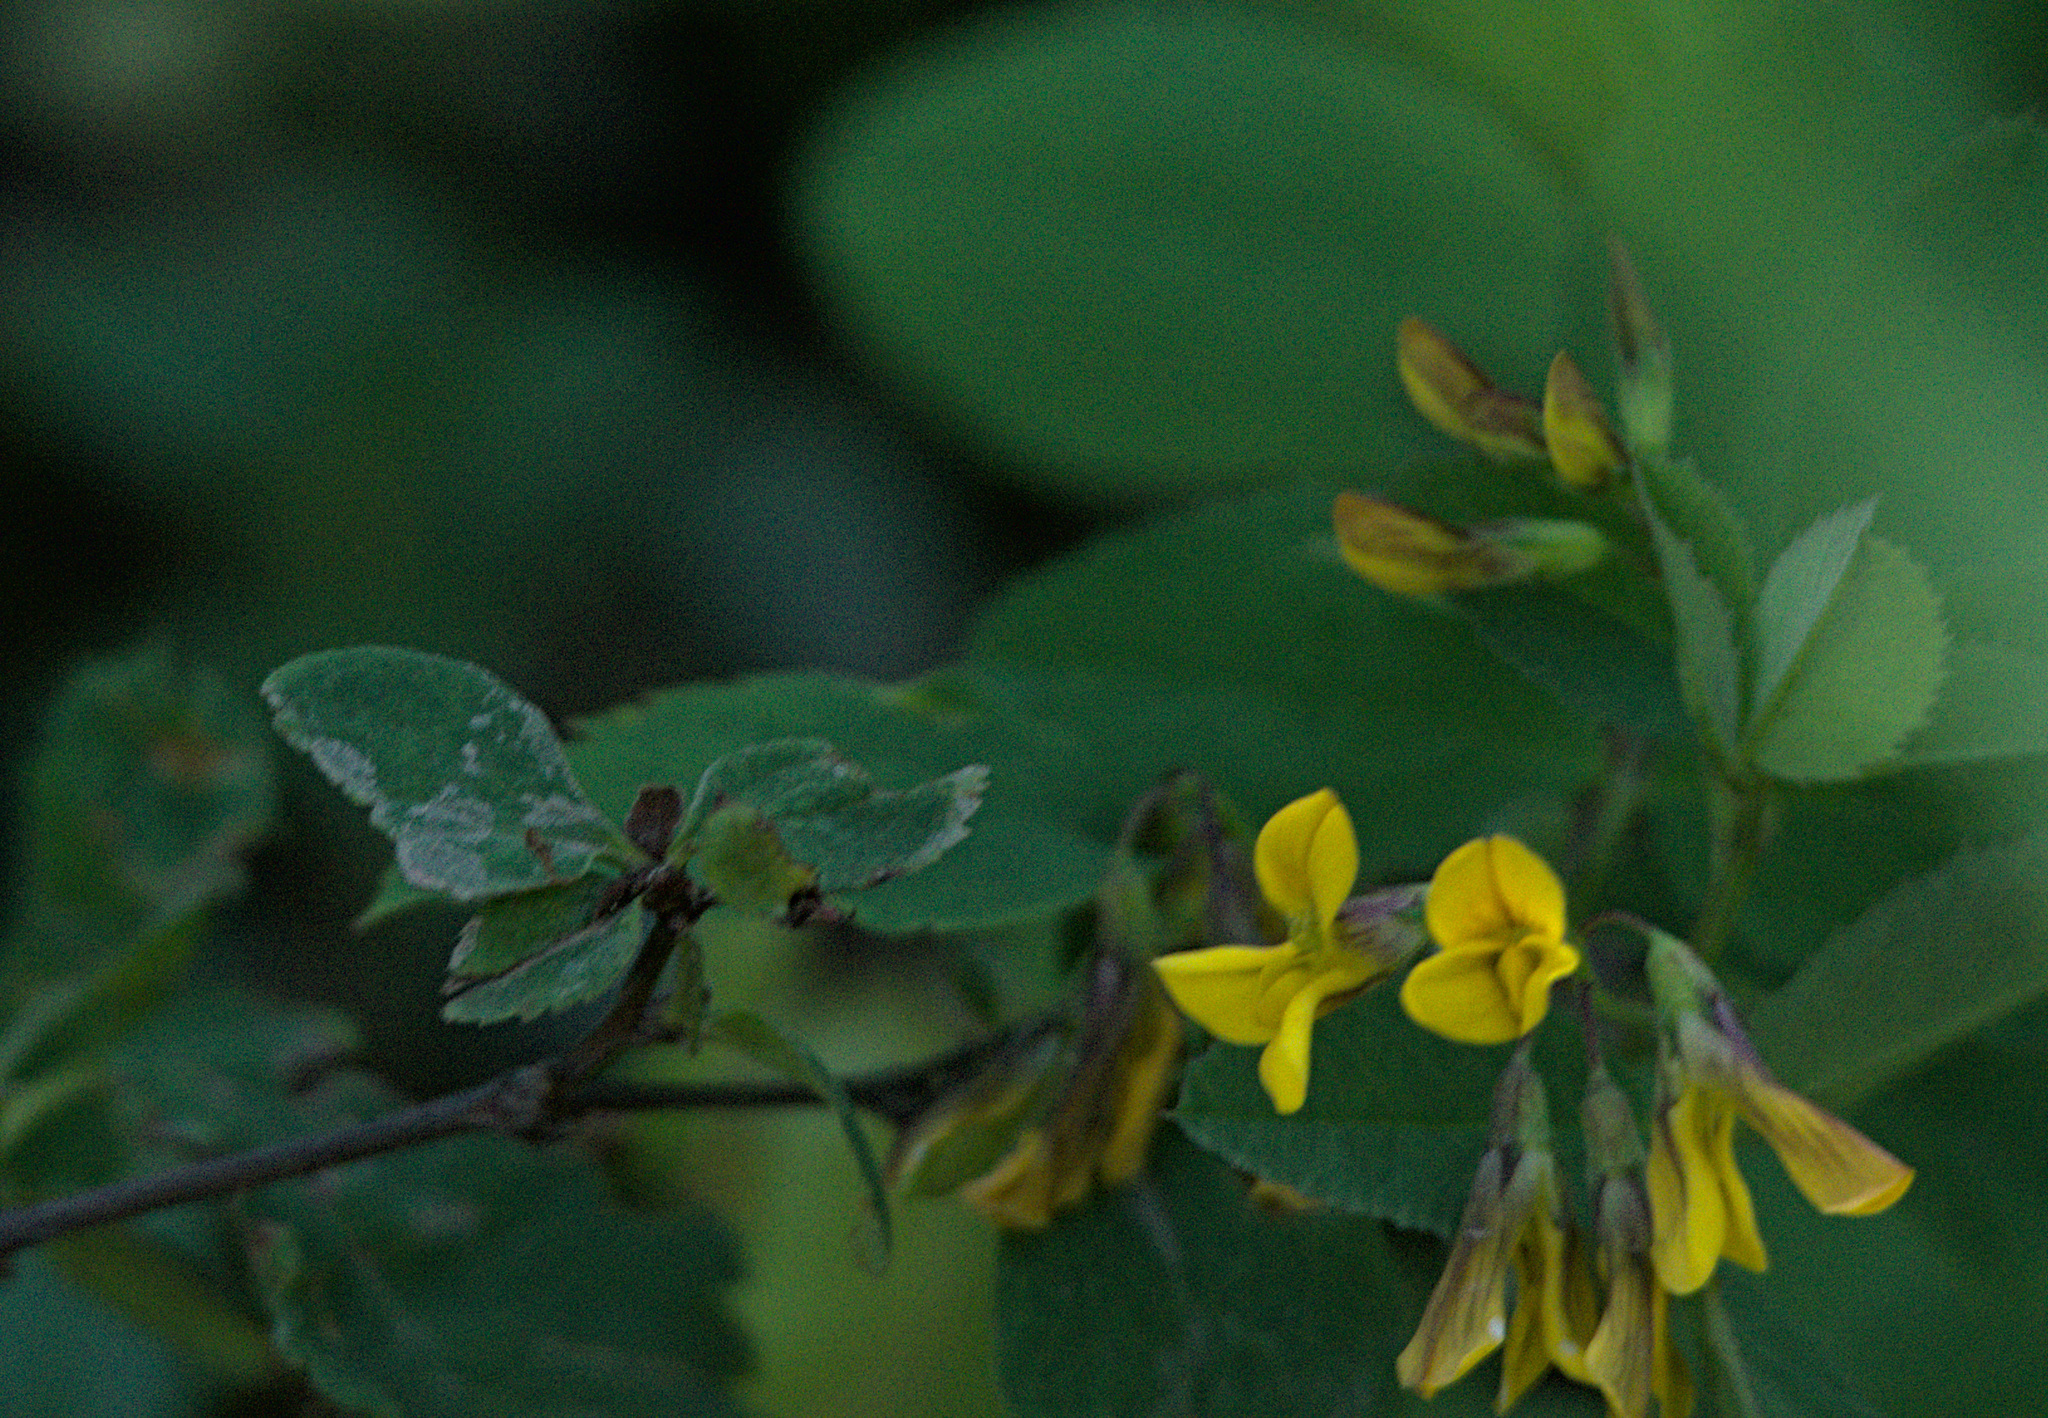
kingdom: Plantae
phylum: Tracheophyta
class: Magnoliopsida
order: Fabales
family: Fabaceae
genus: Medicago
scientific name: Medicago falcata
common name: Sickle medick
